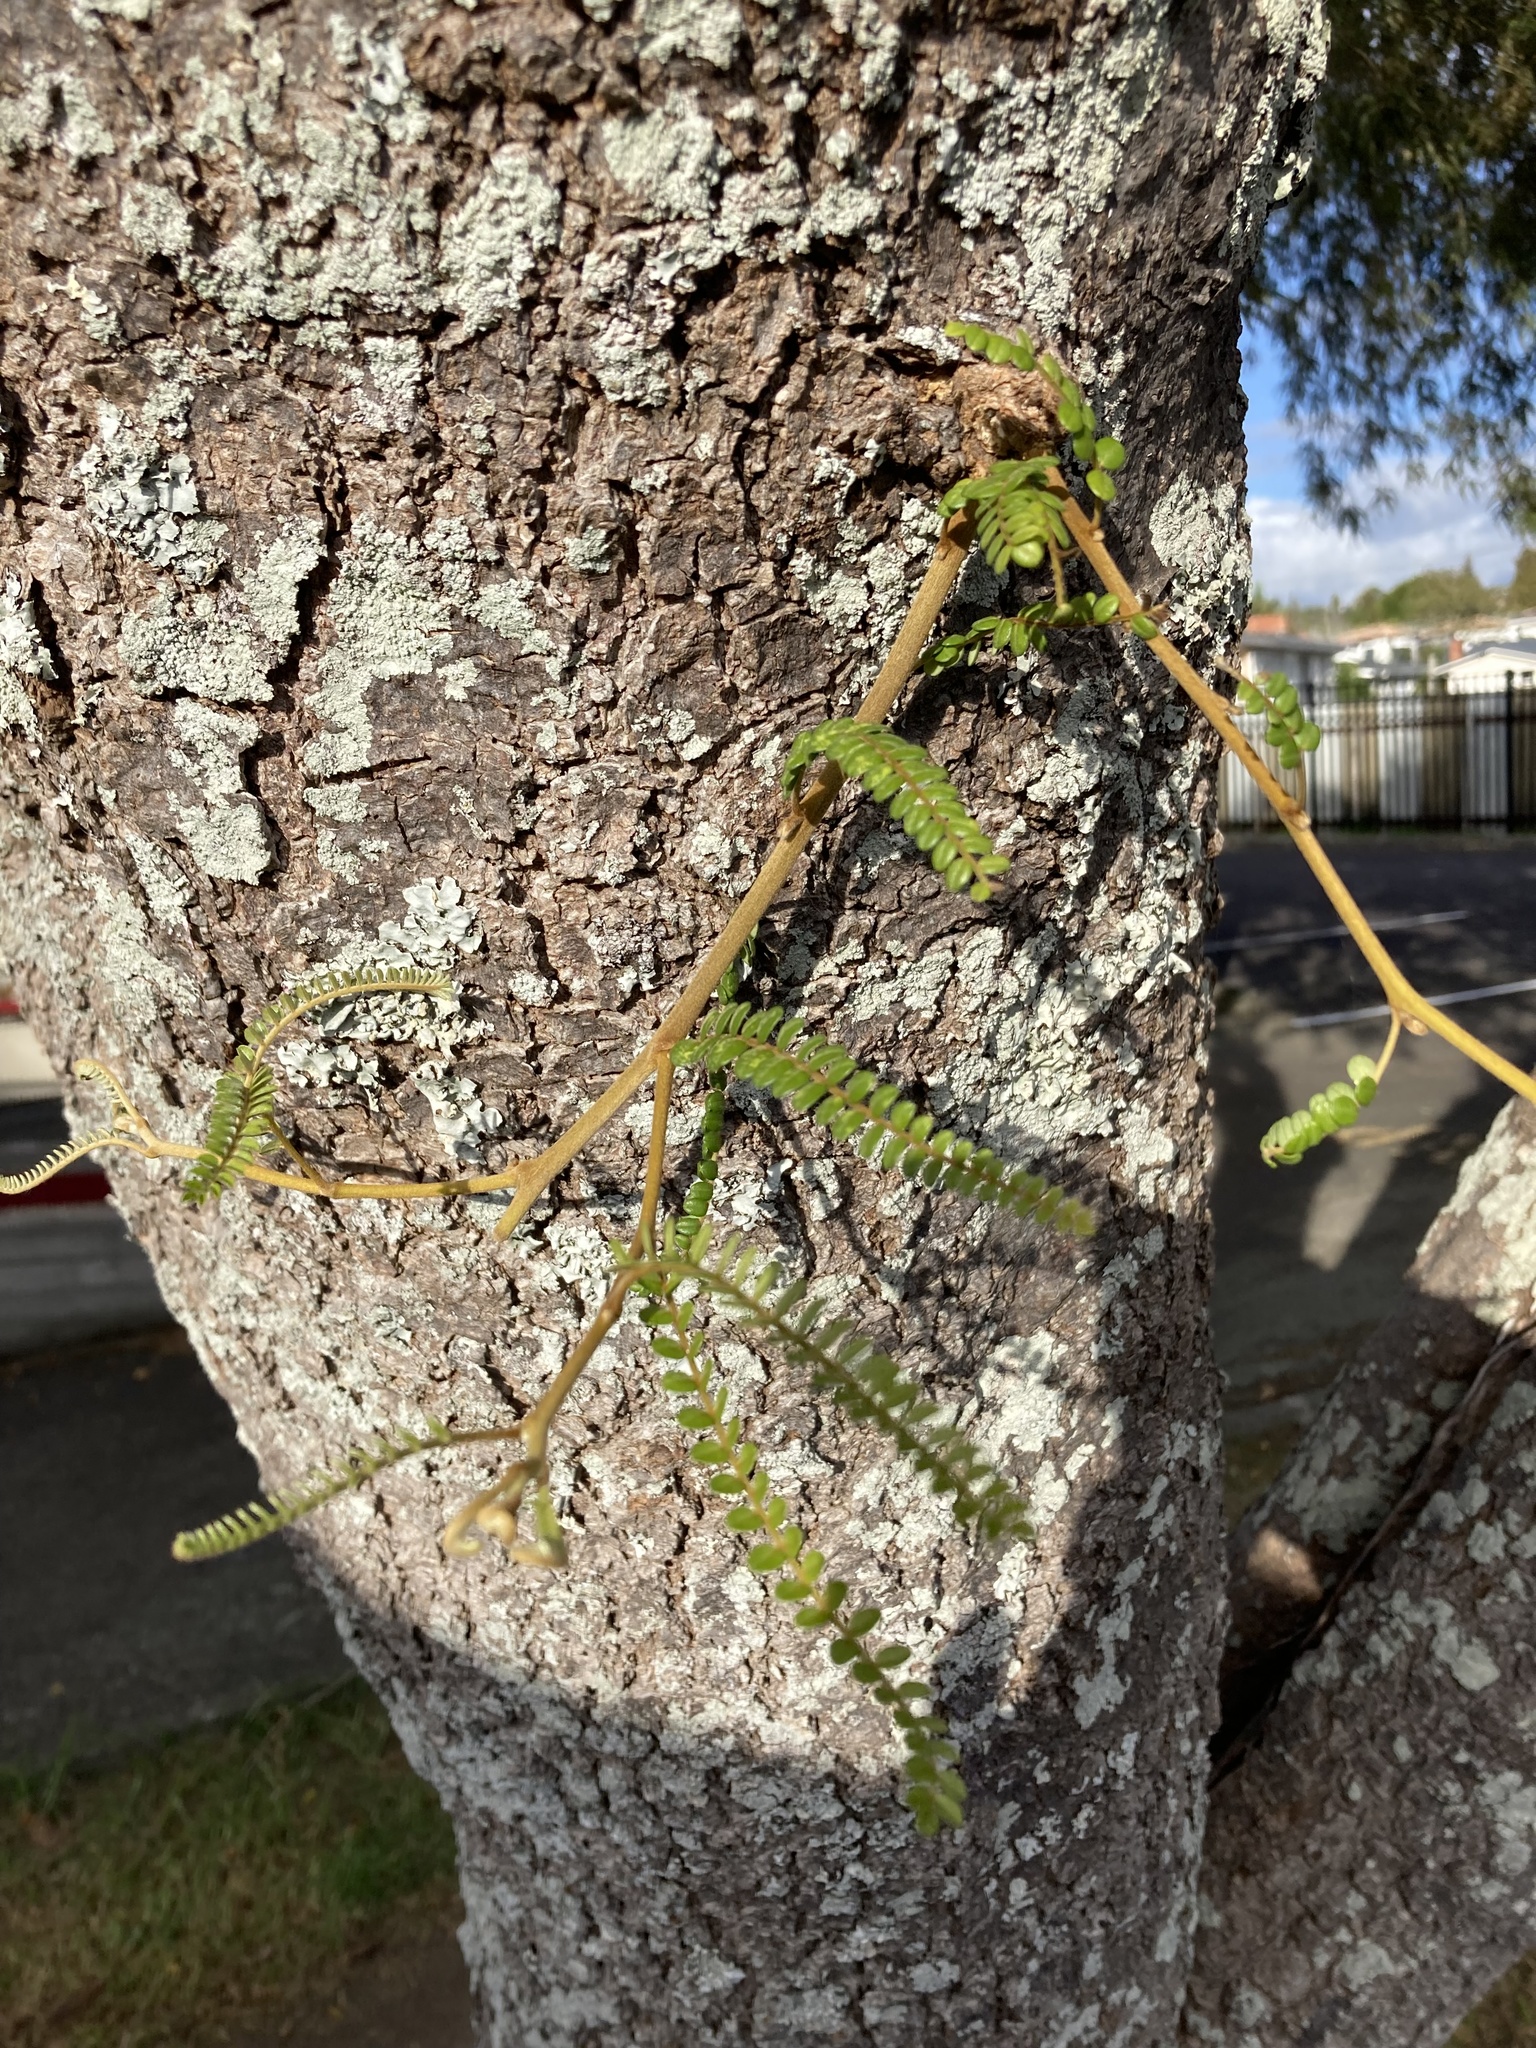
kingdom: Plantae
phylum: Tracheophyta
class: Magnoliopsida
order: Fabales
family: Fabaceae
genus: Sophora
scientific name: Sophora microphylla
